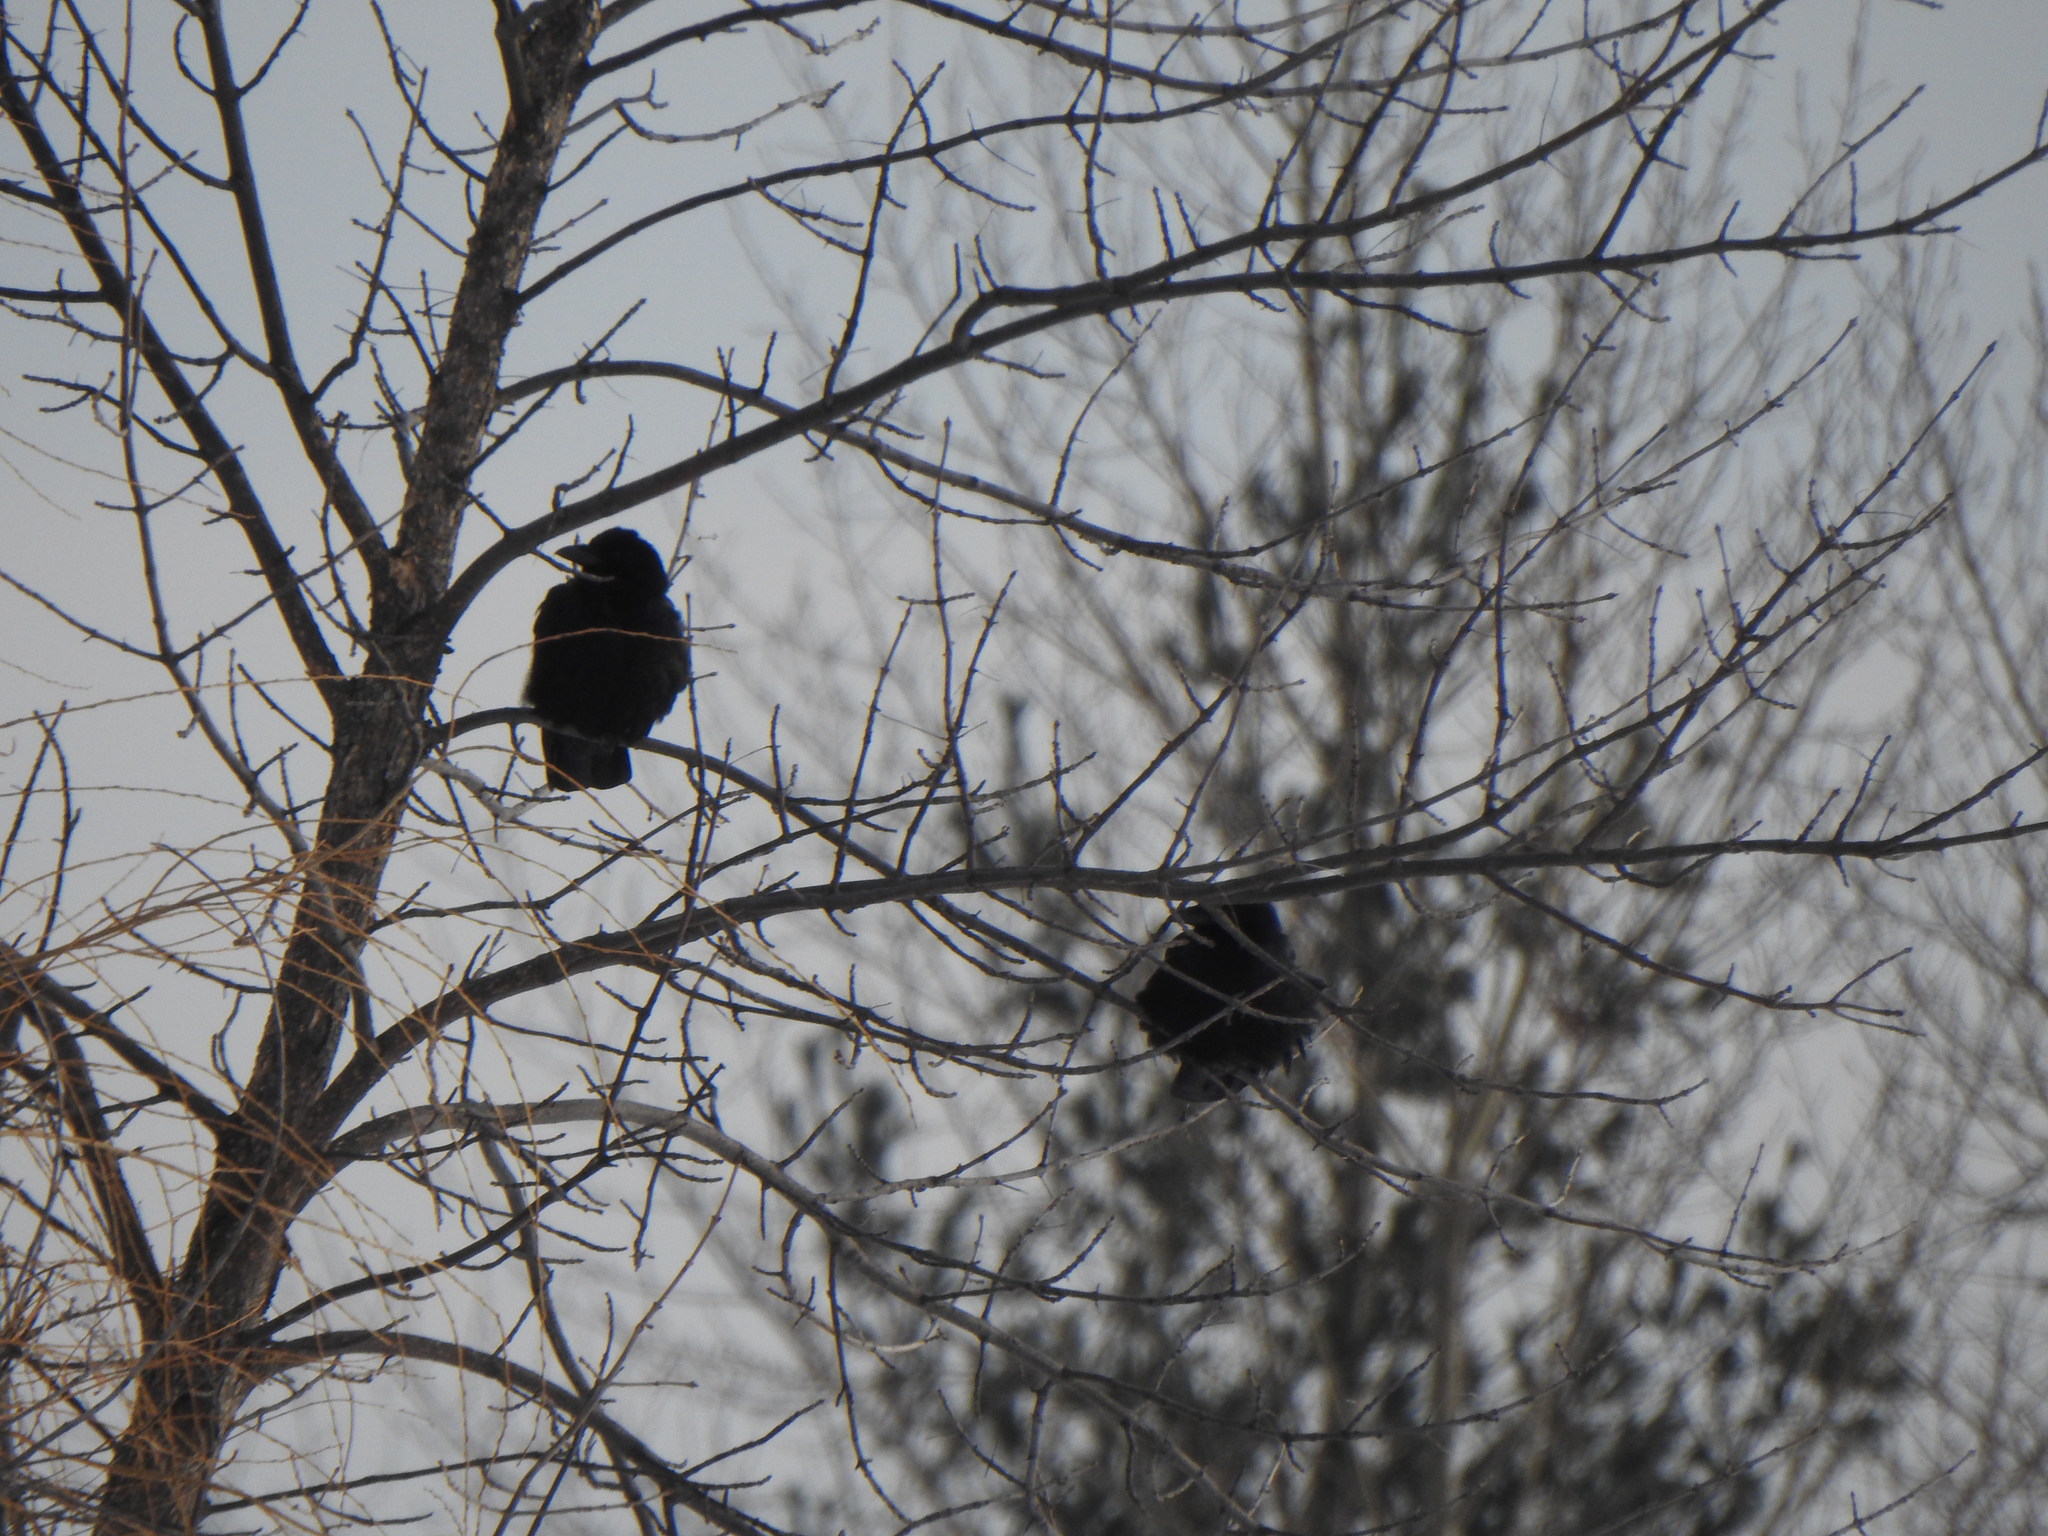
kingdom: Animalia
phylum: Chordata
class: Aves
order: Passeriformes
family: Corvidae
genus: Corvus
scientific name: Corvus brachyrhynchos
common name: American crow
